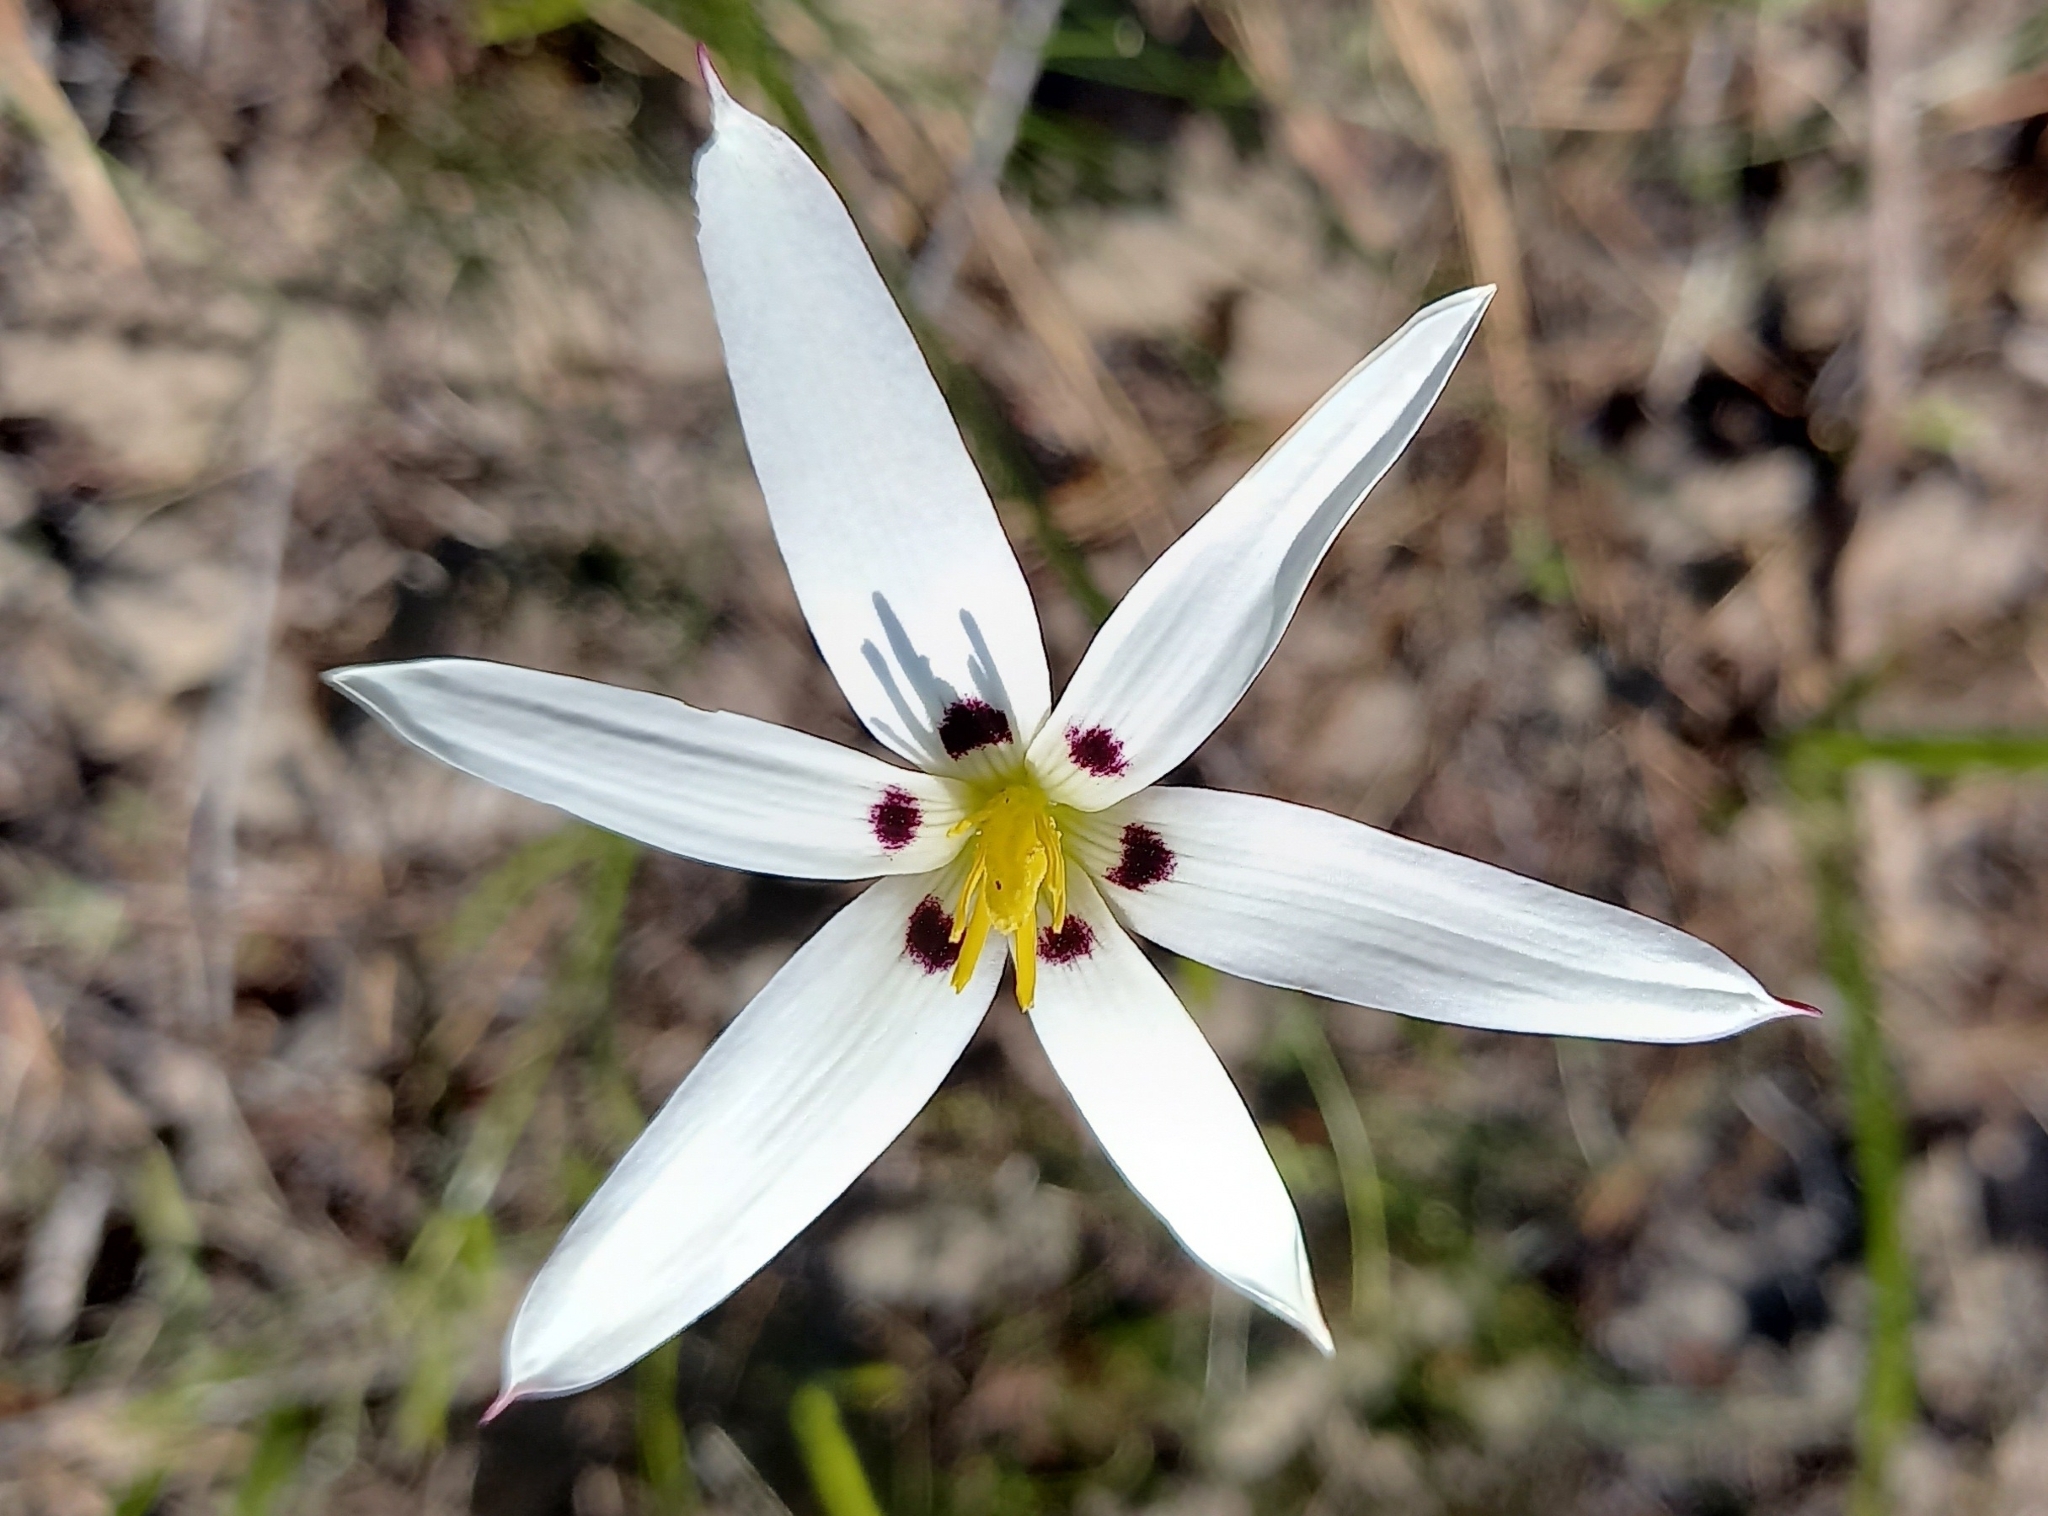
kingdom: Plantae
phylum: Tracheophyta
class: Liliopsida
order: Asparagales
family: Hypoxidaceae
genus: Pauridia
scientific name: Pauridia capensis
